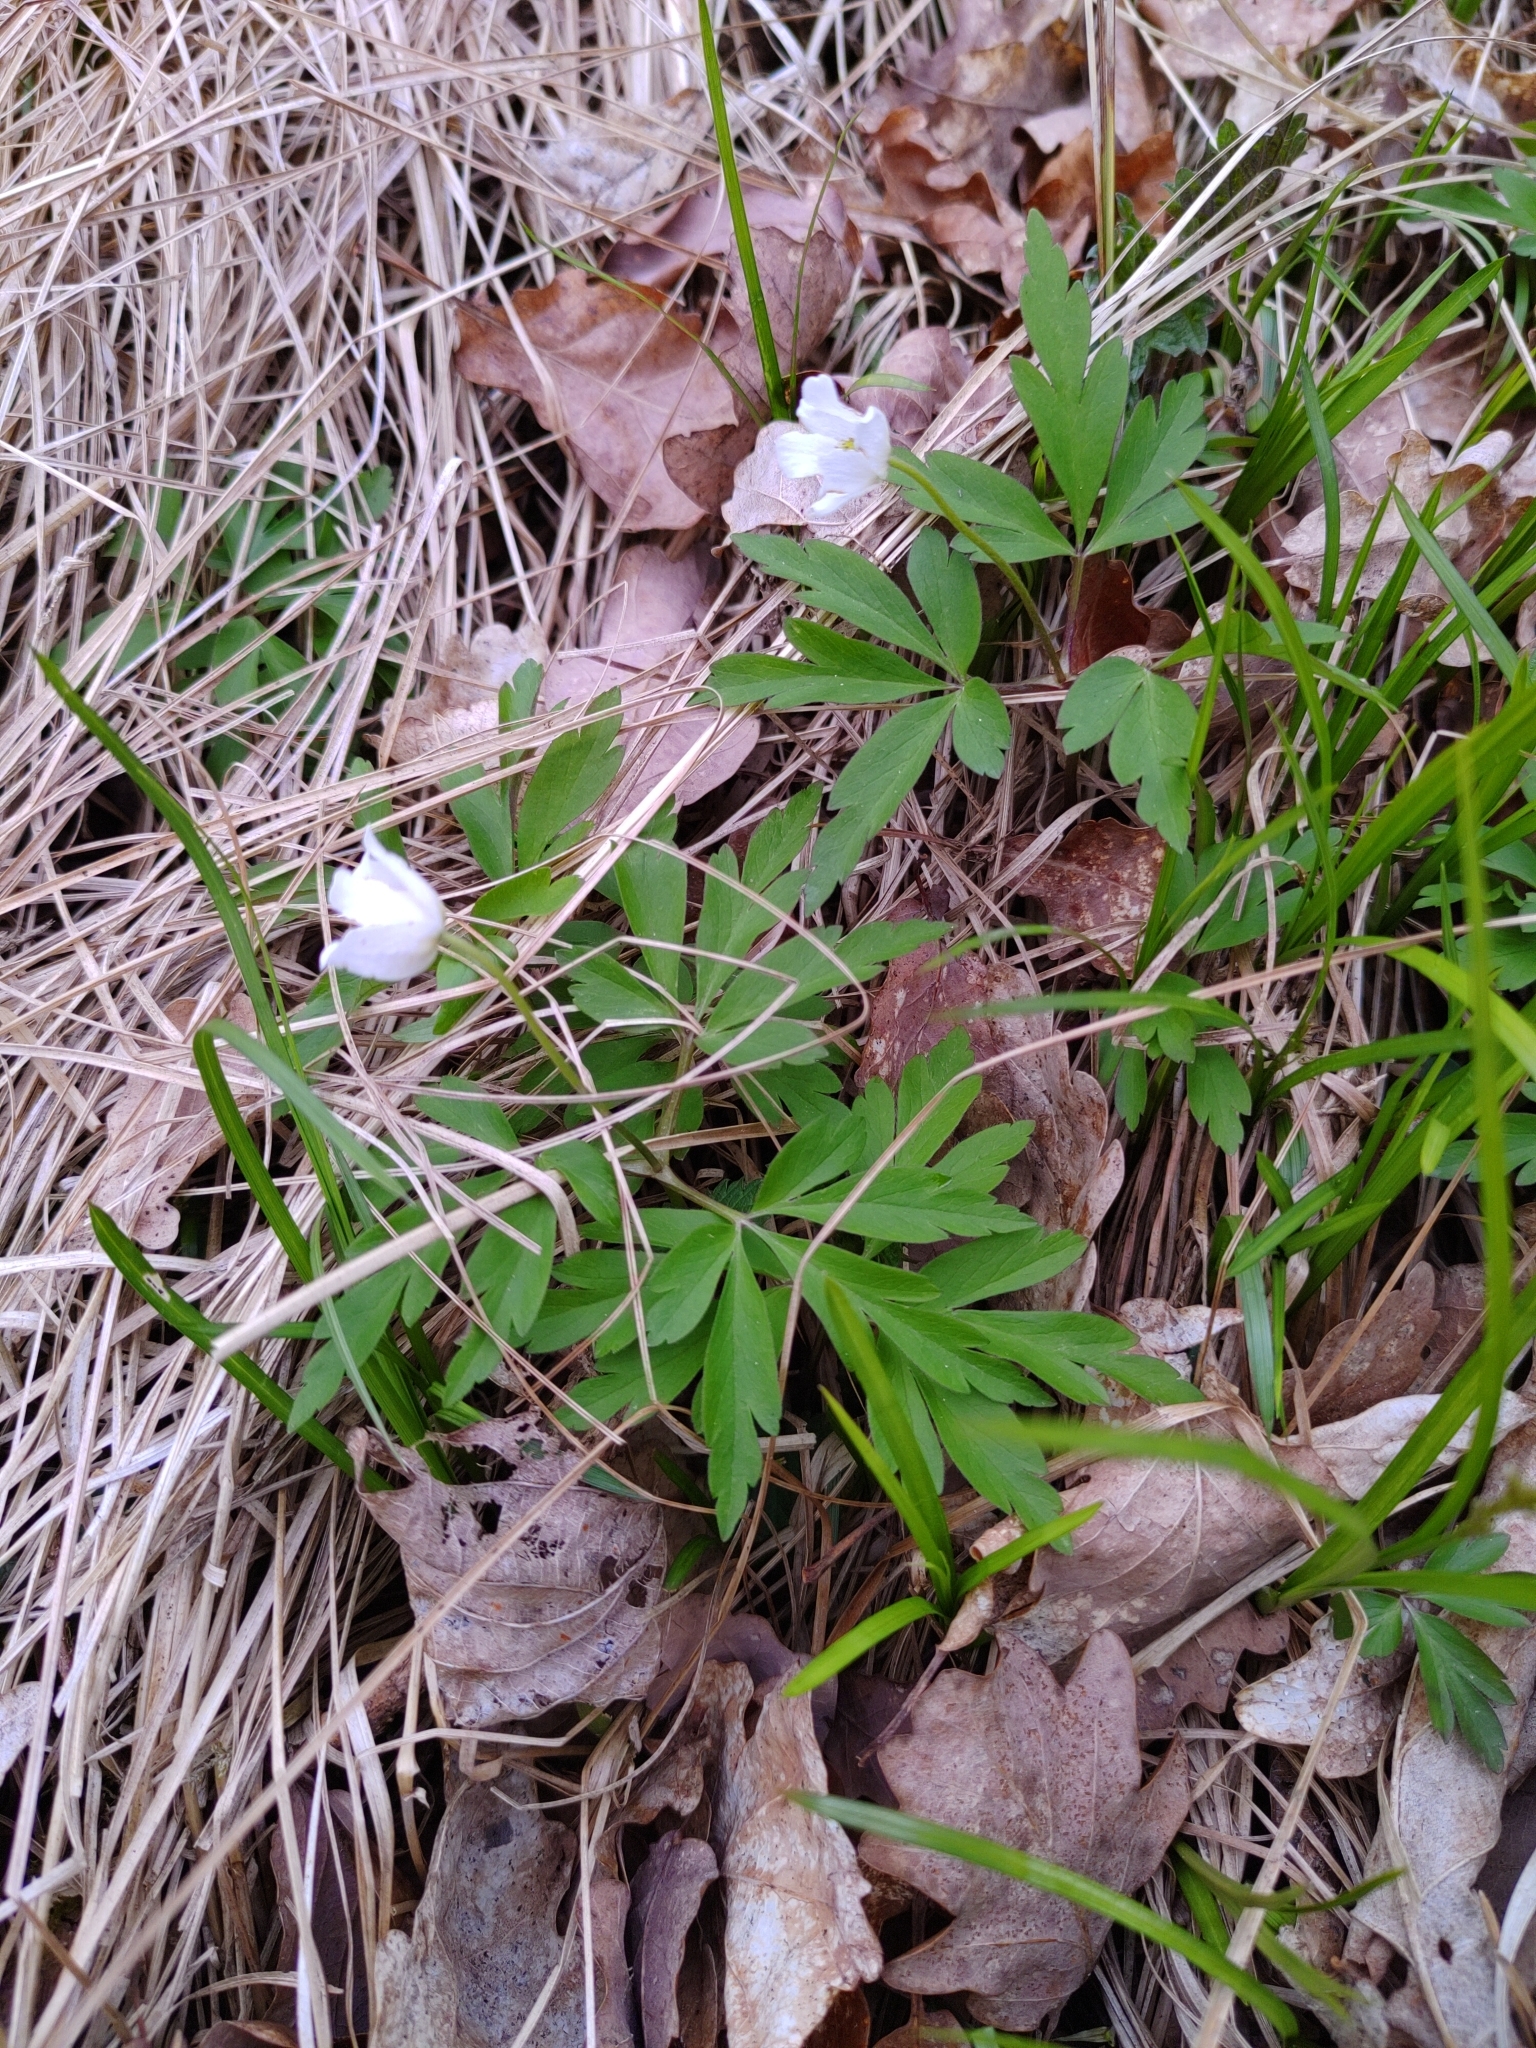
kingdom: Plantae
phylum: Tracheophyta
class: Magnoliopsida
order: Ranunculales
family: Ranunculaceae
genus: Anemone
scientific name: Anemone nemorosa
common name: Wood anemone
